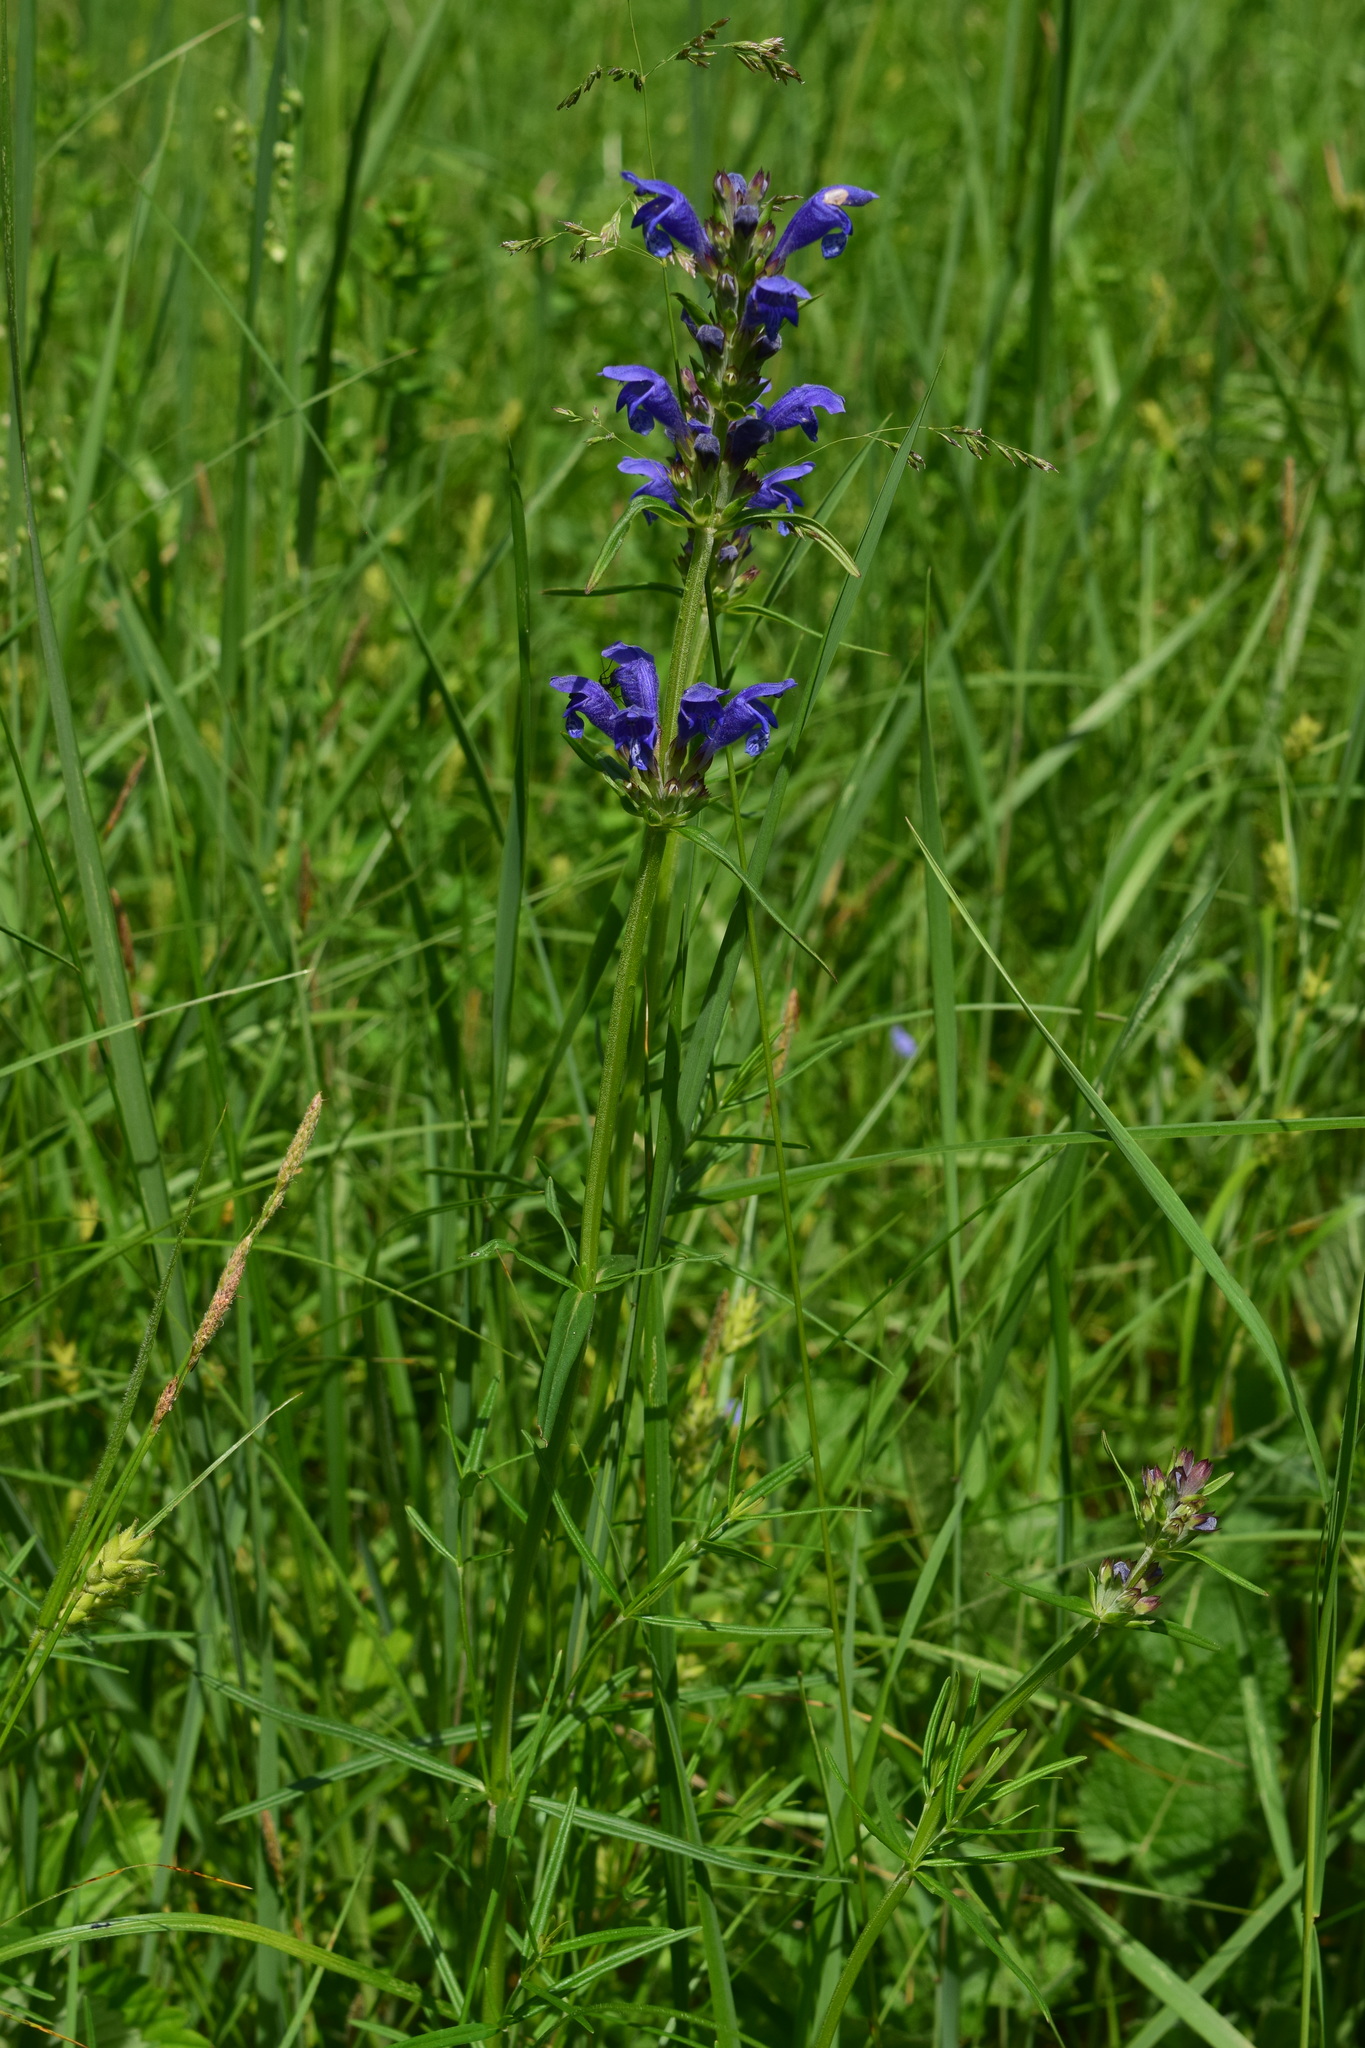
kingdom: Plantae
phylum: Tracheophyta
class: Magnoliopsida
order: Lamiales
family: Lamiaceae
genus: Dracocephalum
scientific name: Dracocephalum ruyschiana
